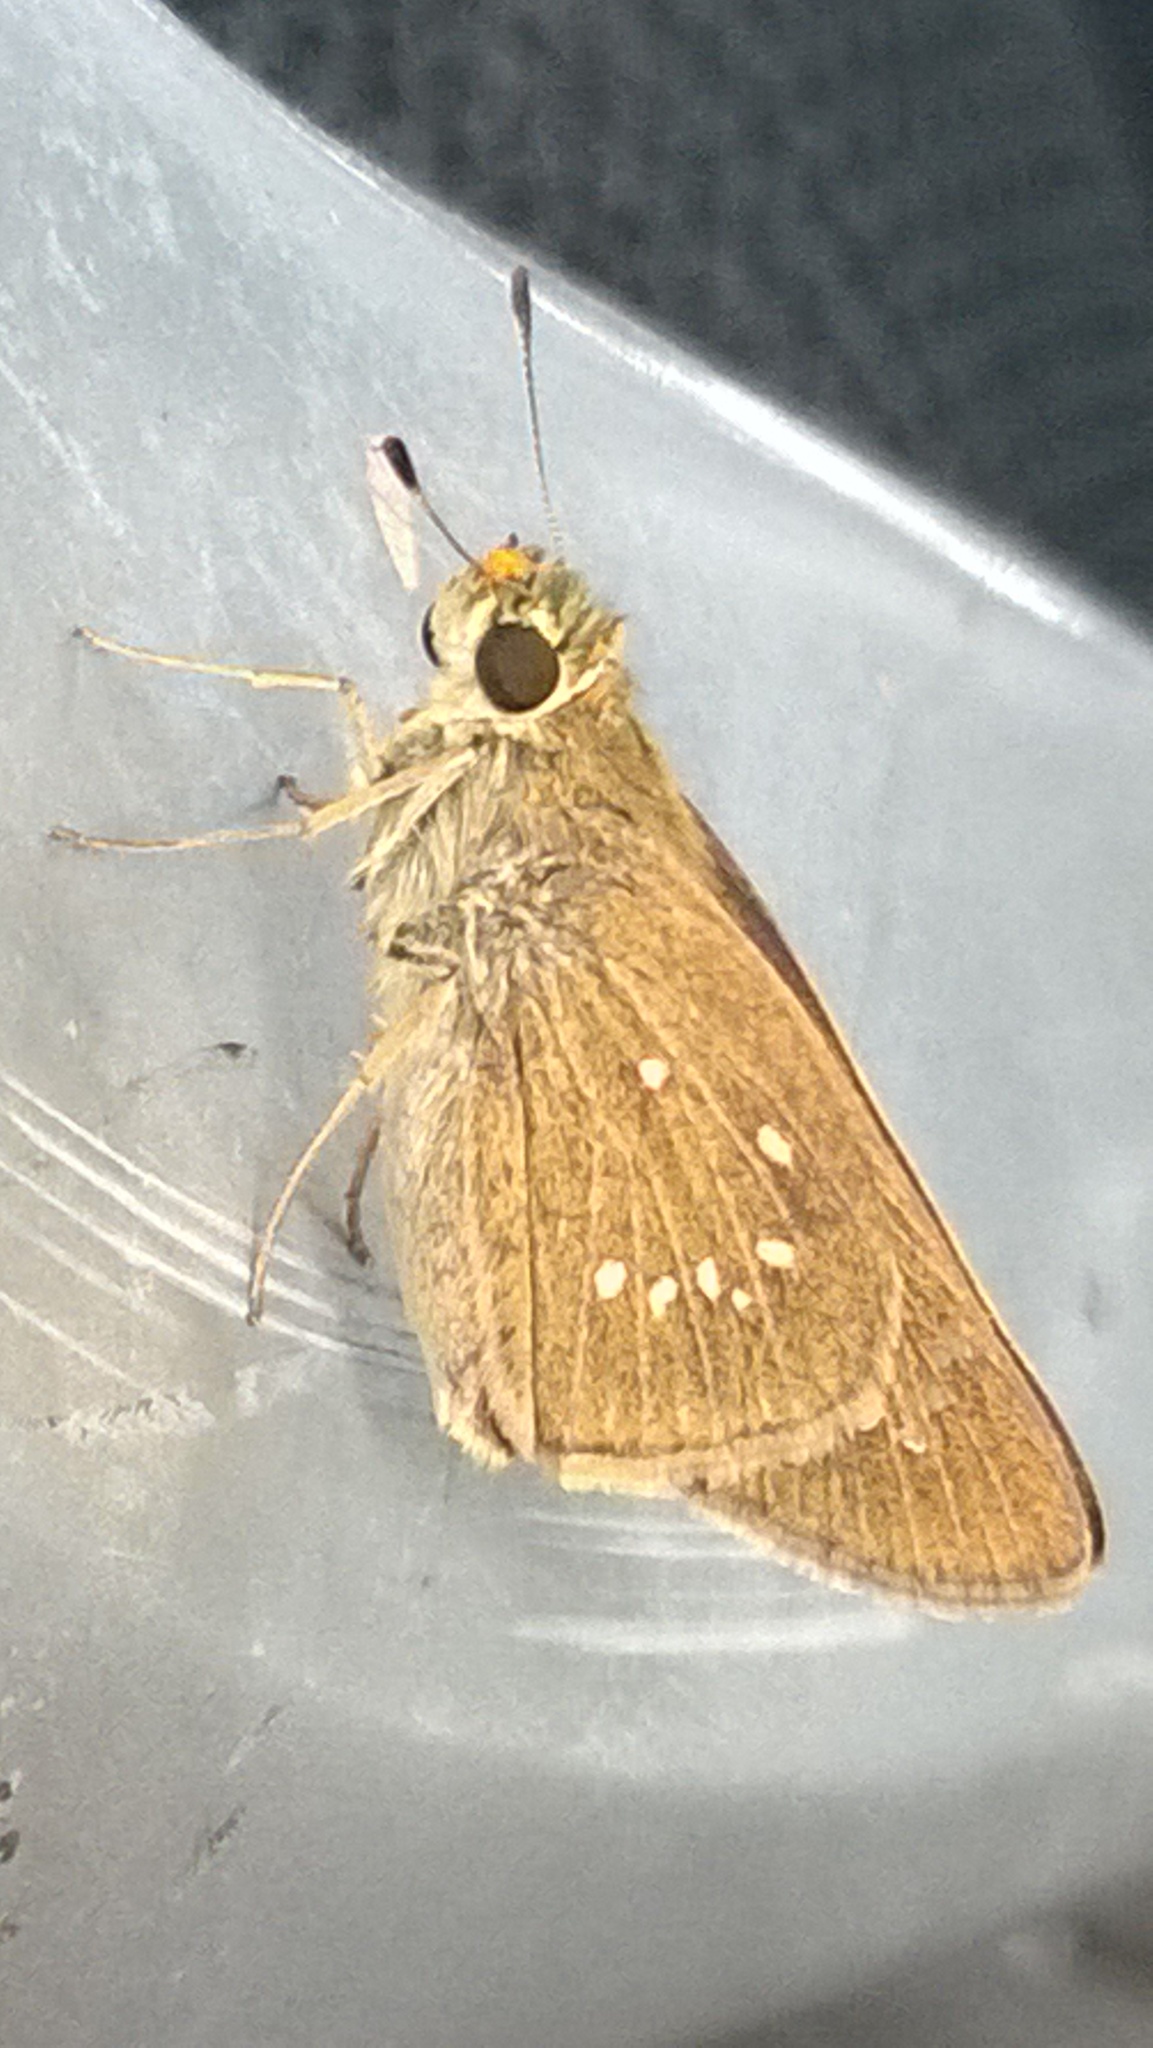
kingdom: Animalia
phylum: Arthropoda
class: Insecta
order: Lepidoptera
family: Hesperiidae
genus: Pelopidas
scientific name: Pelopidas mathias
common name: Black-branded swift
